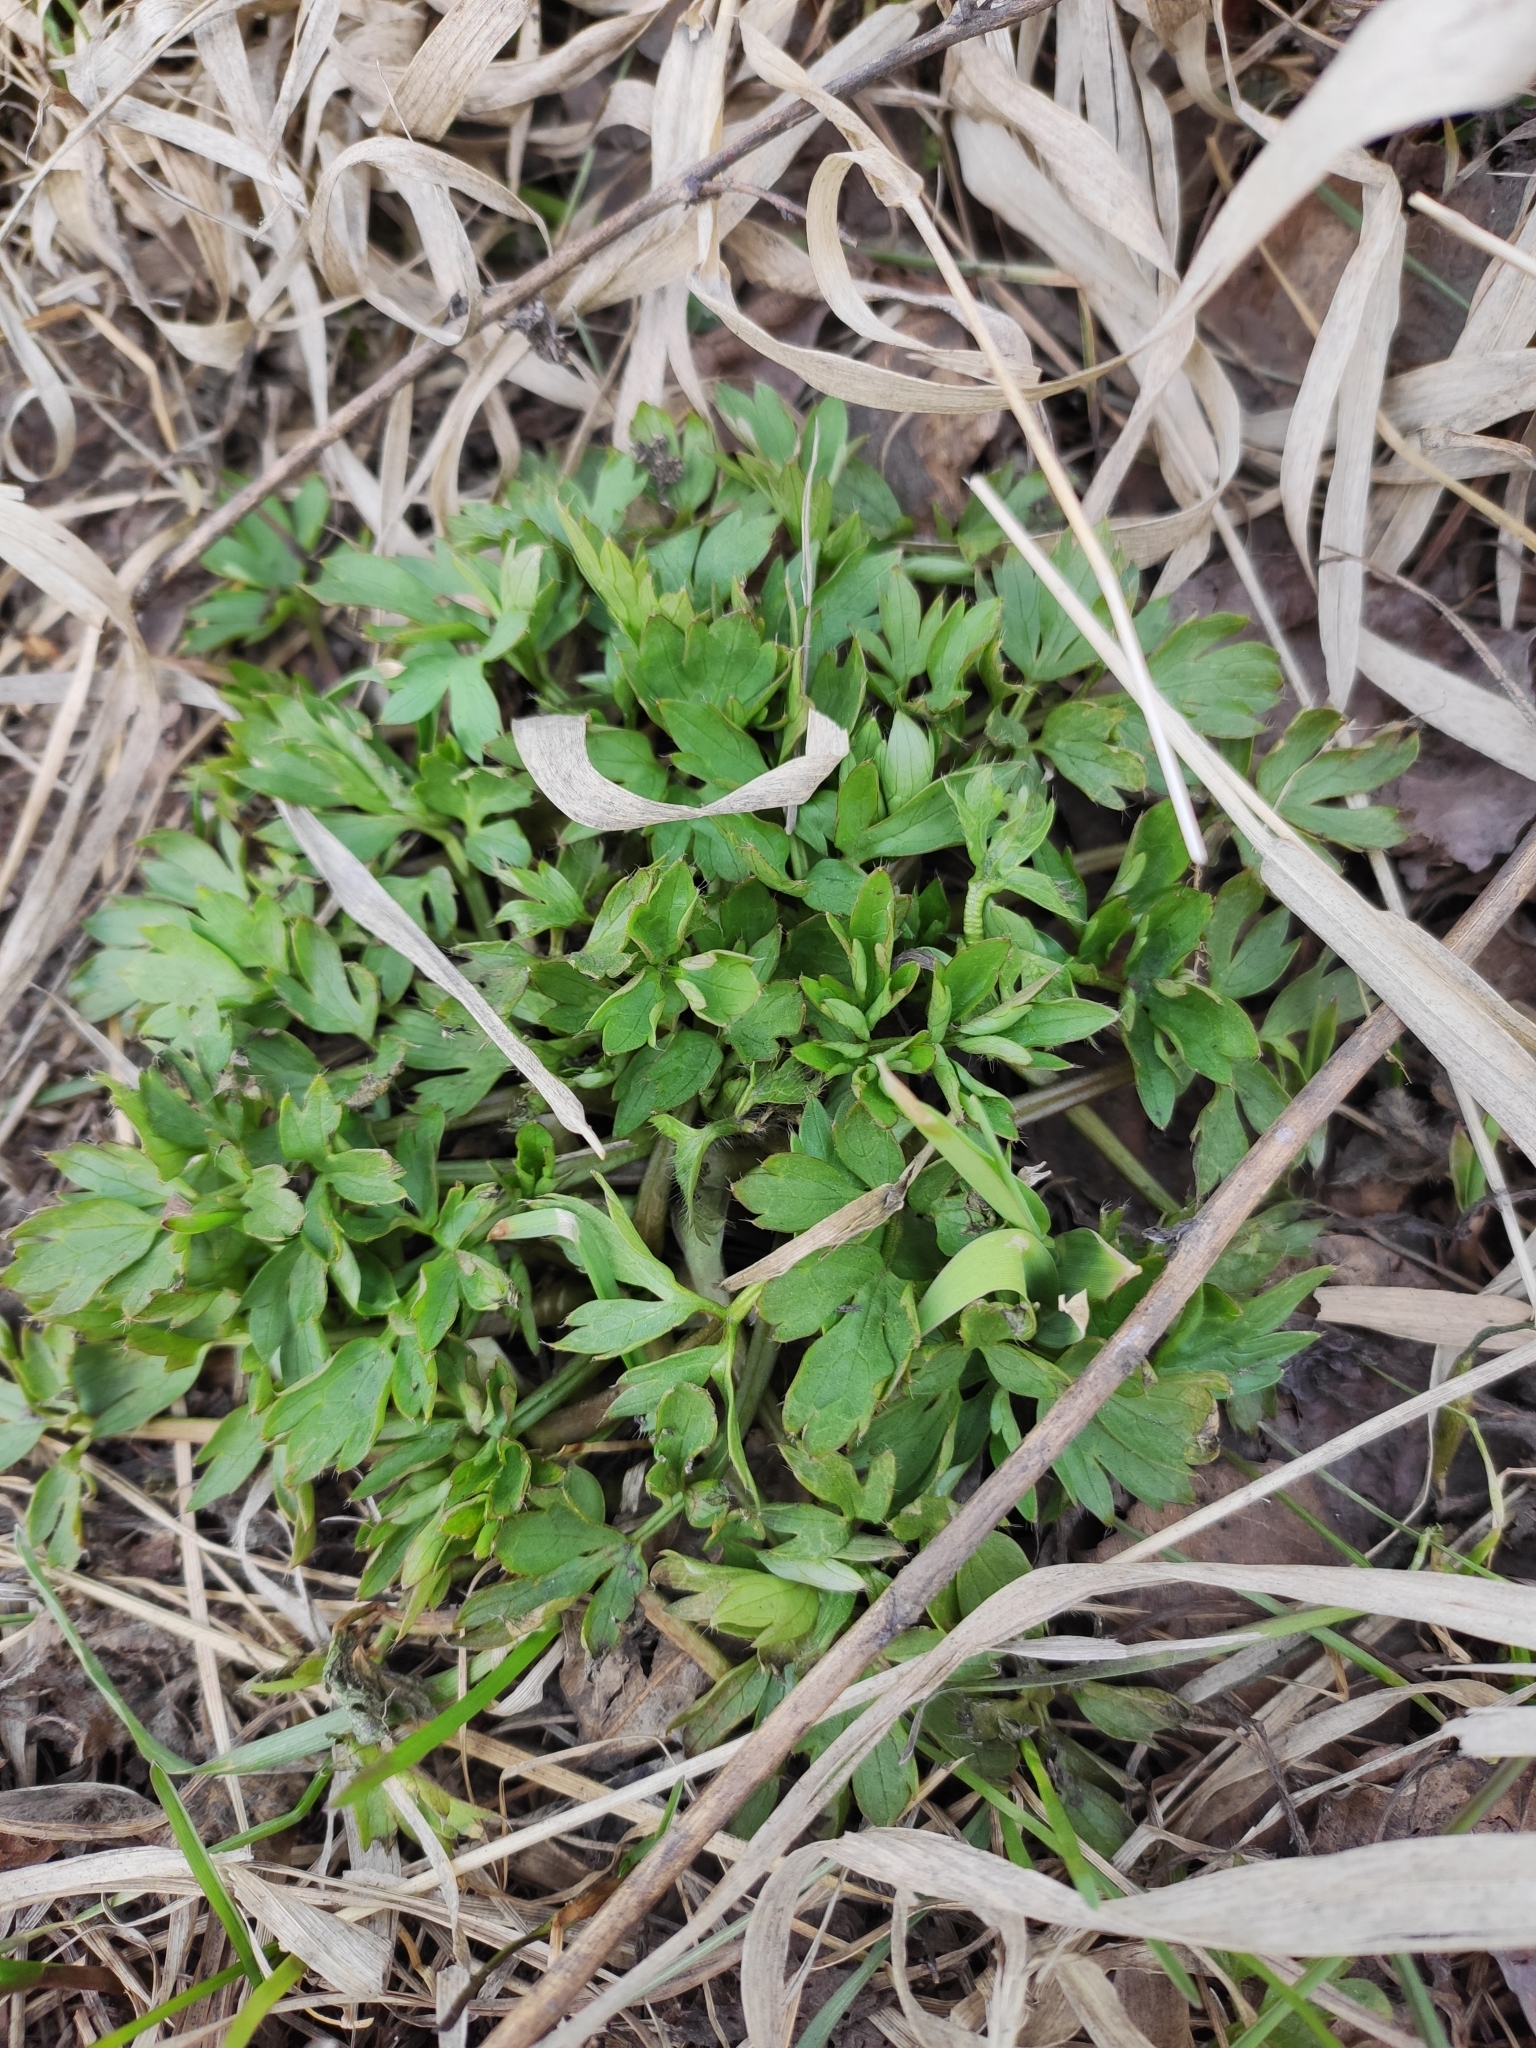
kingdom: Plantae
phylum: Tracheophyta
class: Magnoliopsida
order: Ranunculales
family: Ranunculaceae
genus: Ranunculus
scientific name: Ranunculus repens
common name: Creeping buttercup
